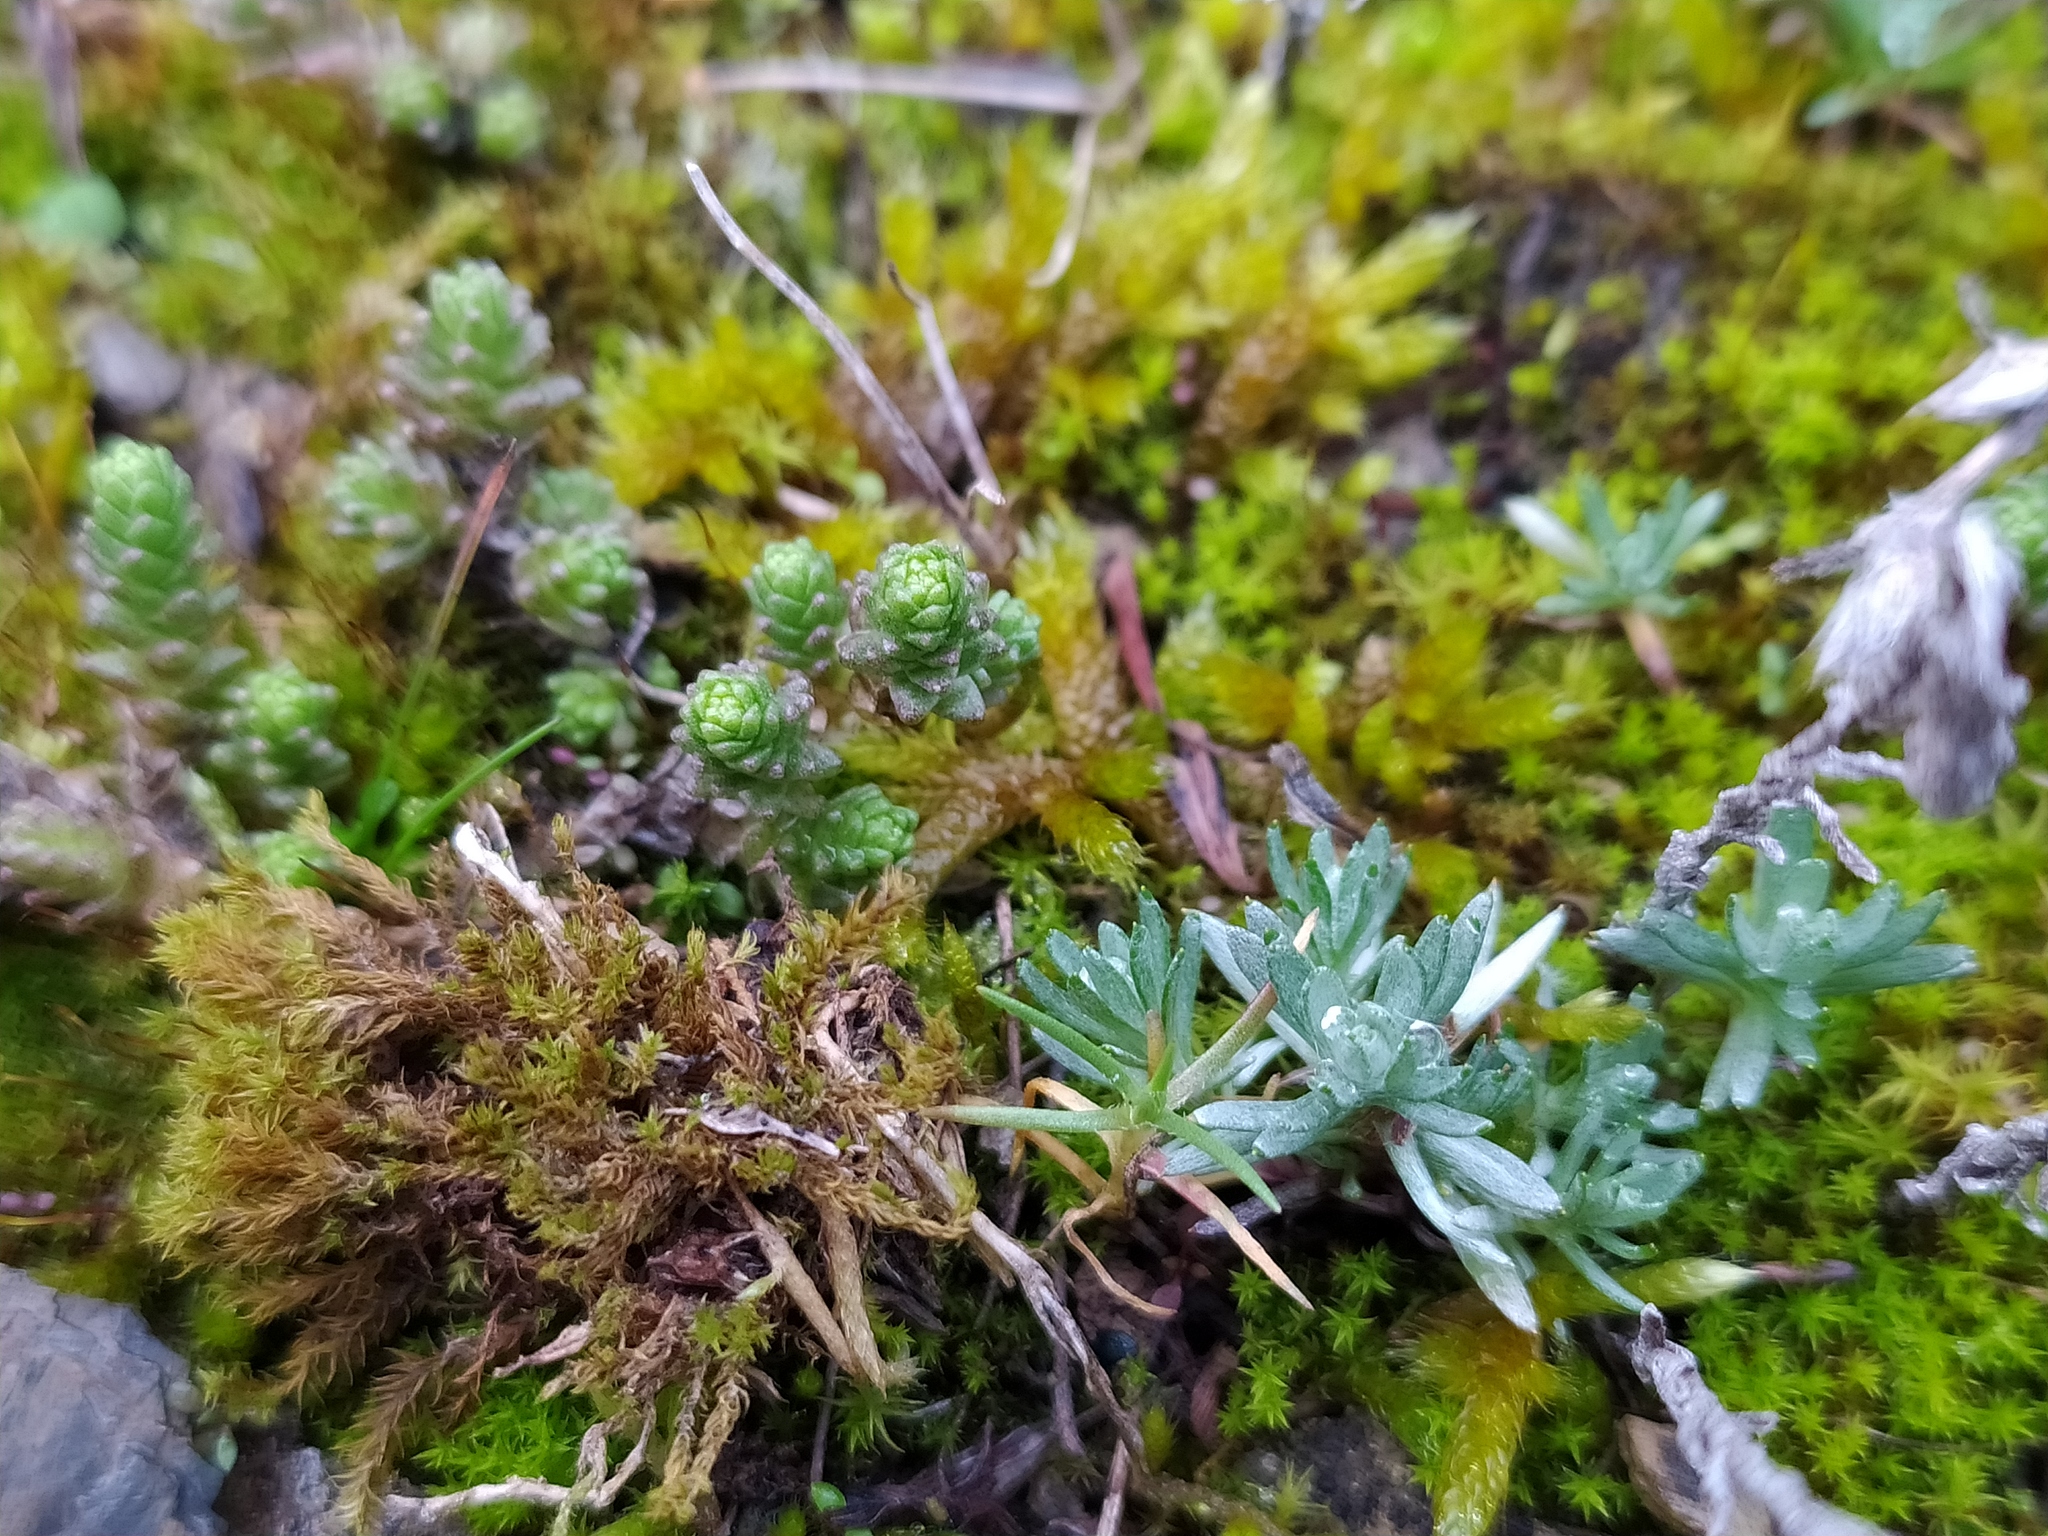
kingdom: Plantae
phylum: Tracheophyta
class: Magnoliopsida
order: Asterales
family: Asteraceae
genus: Logfia
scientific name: Logfia minima
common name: Little cottonrose
